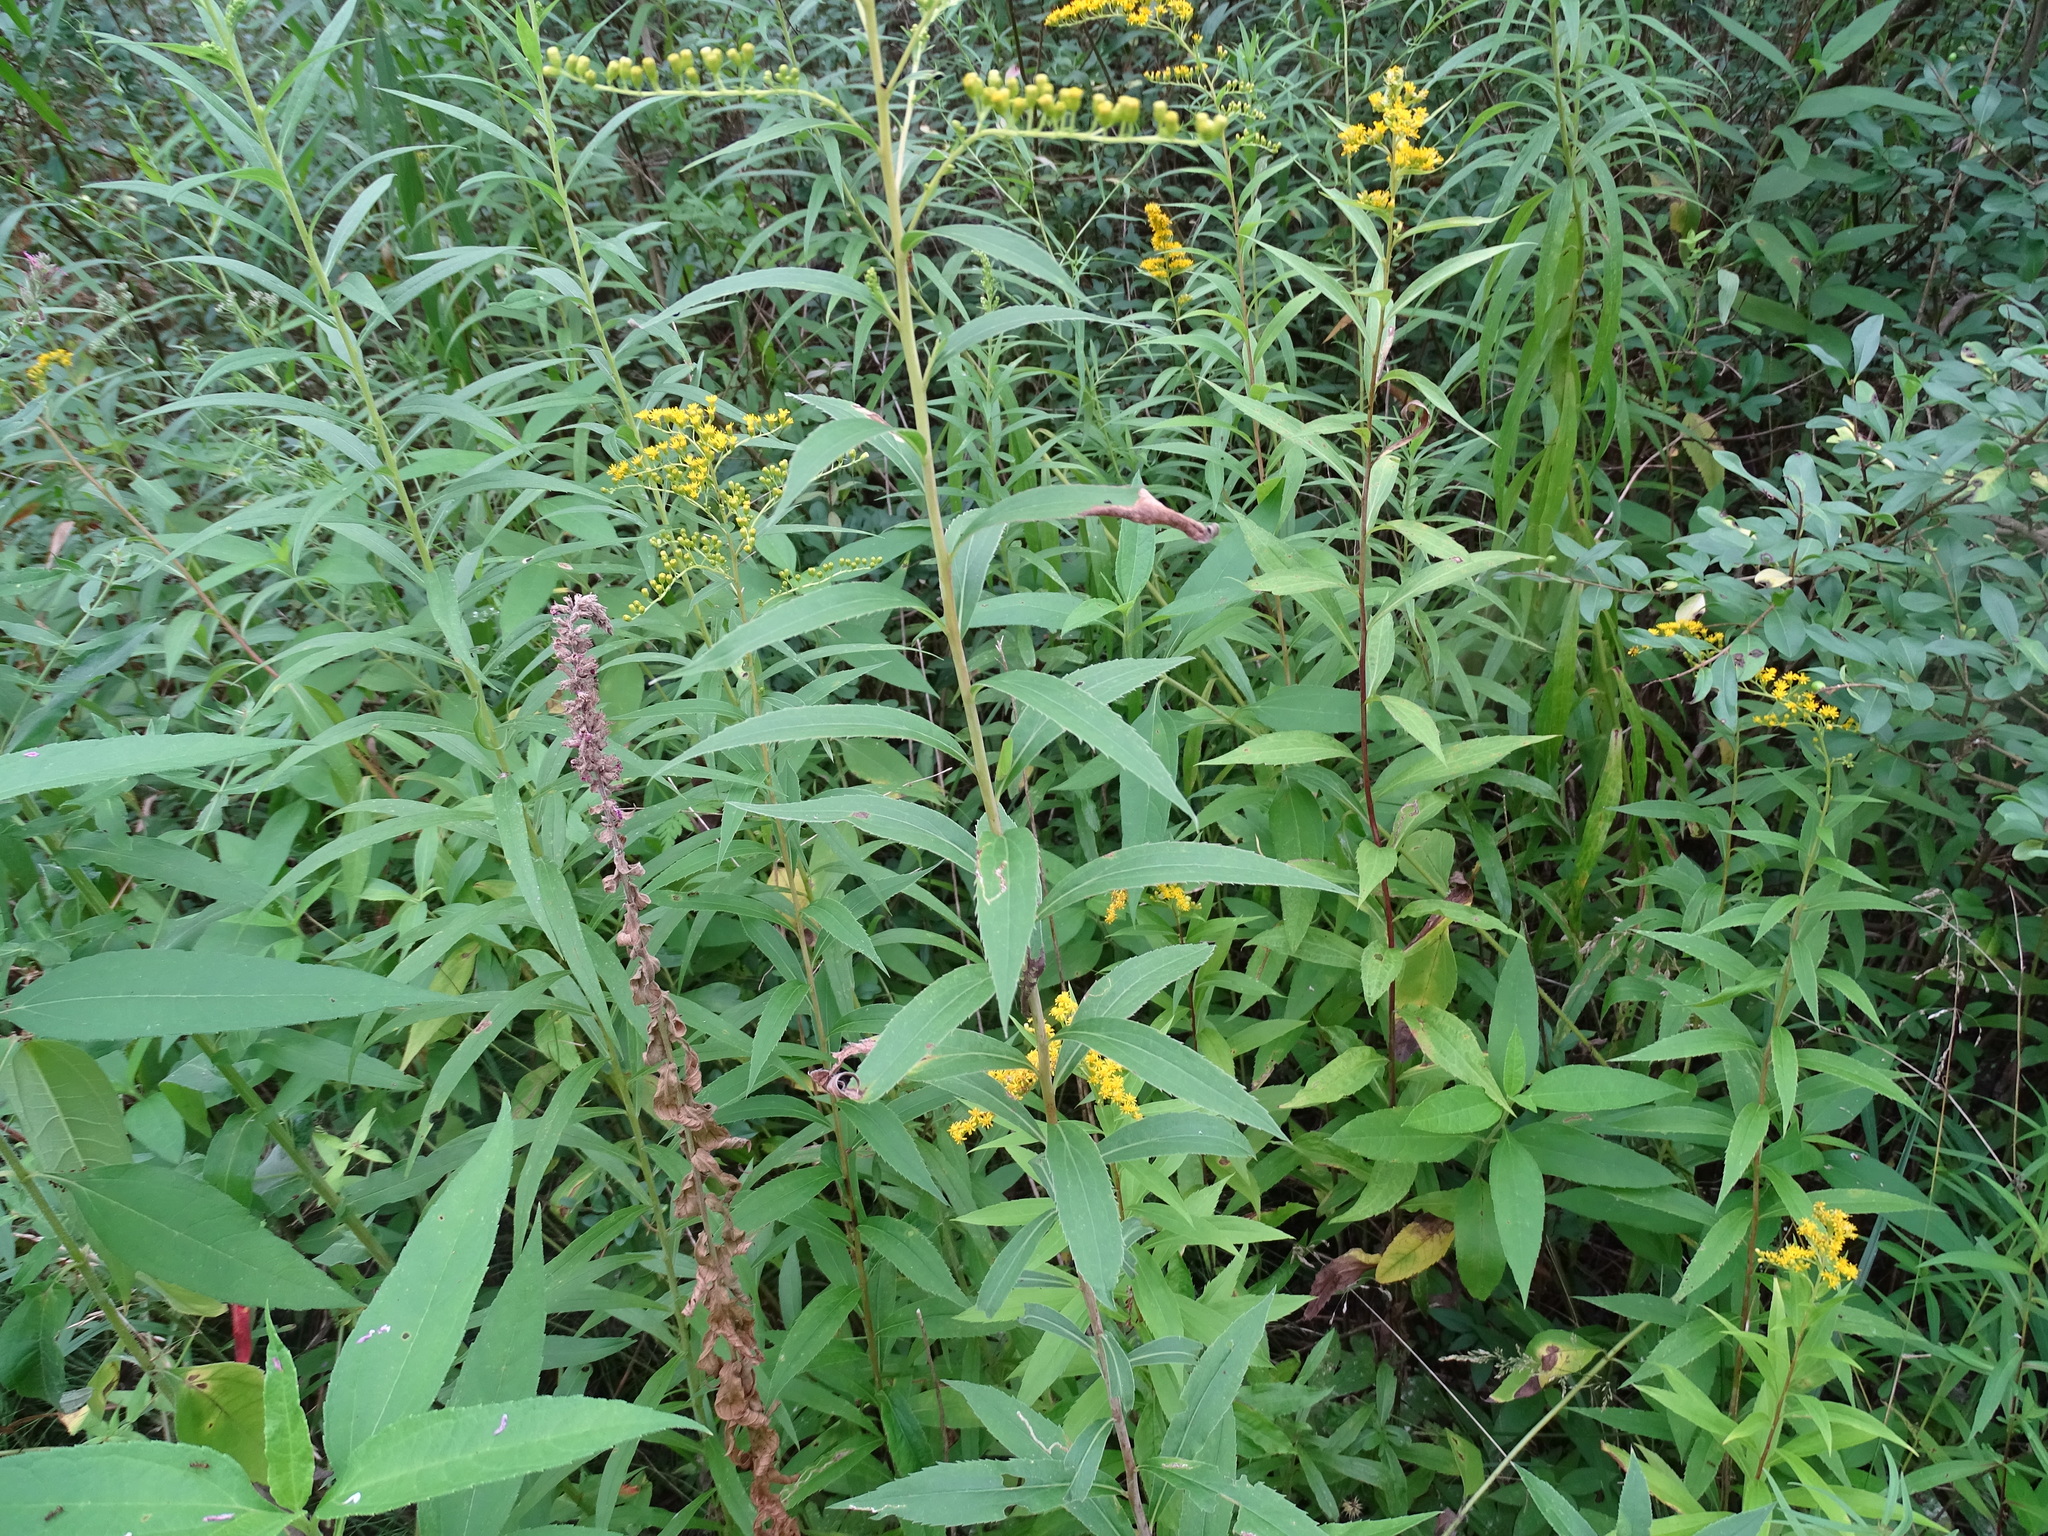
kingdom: Plantae
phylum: Tracheophyta
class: Magnoliopsida
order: Asterales
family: Asteraceae
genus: Solidago
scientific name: Solidago gigantea
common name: Giant goldenrod
